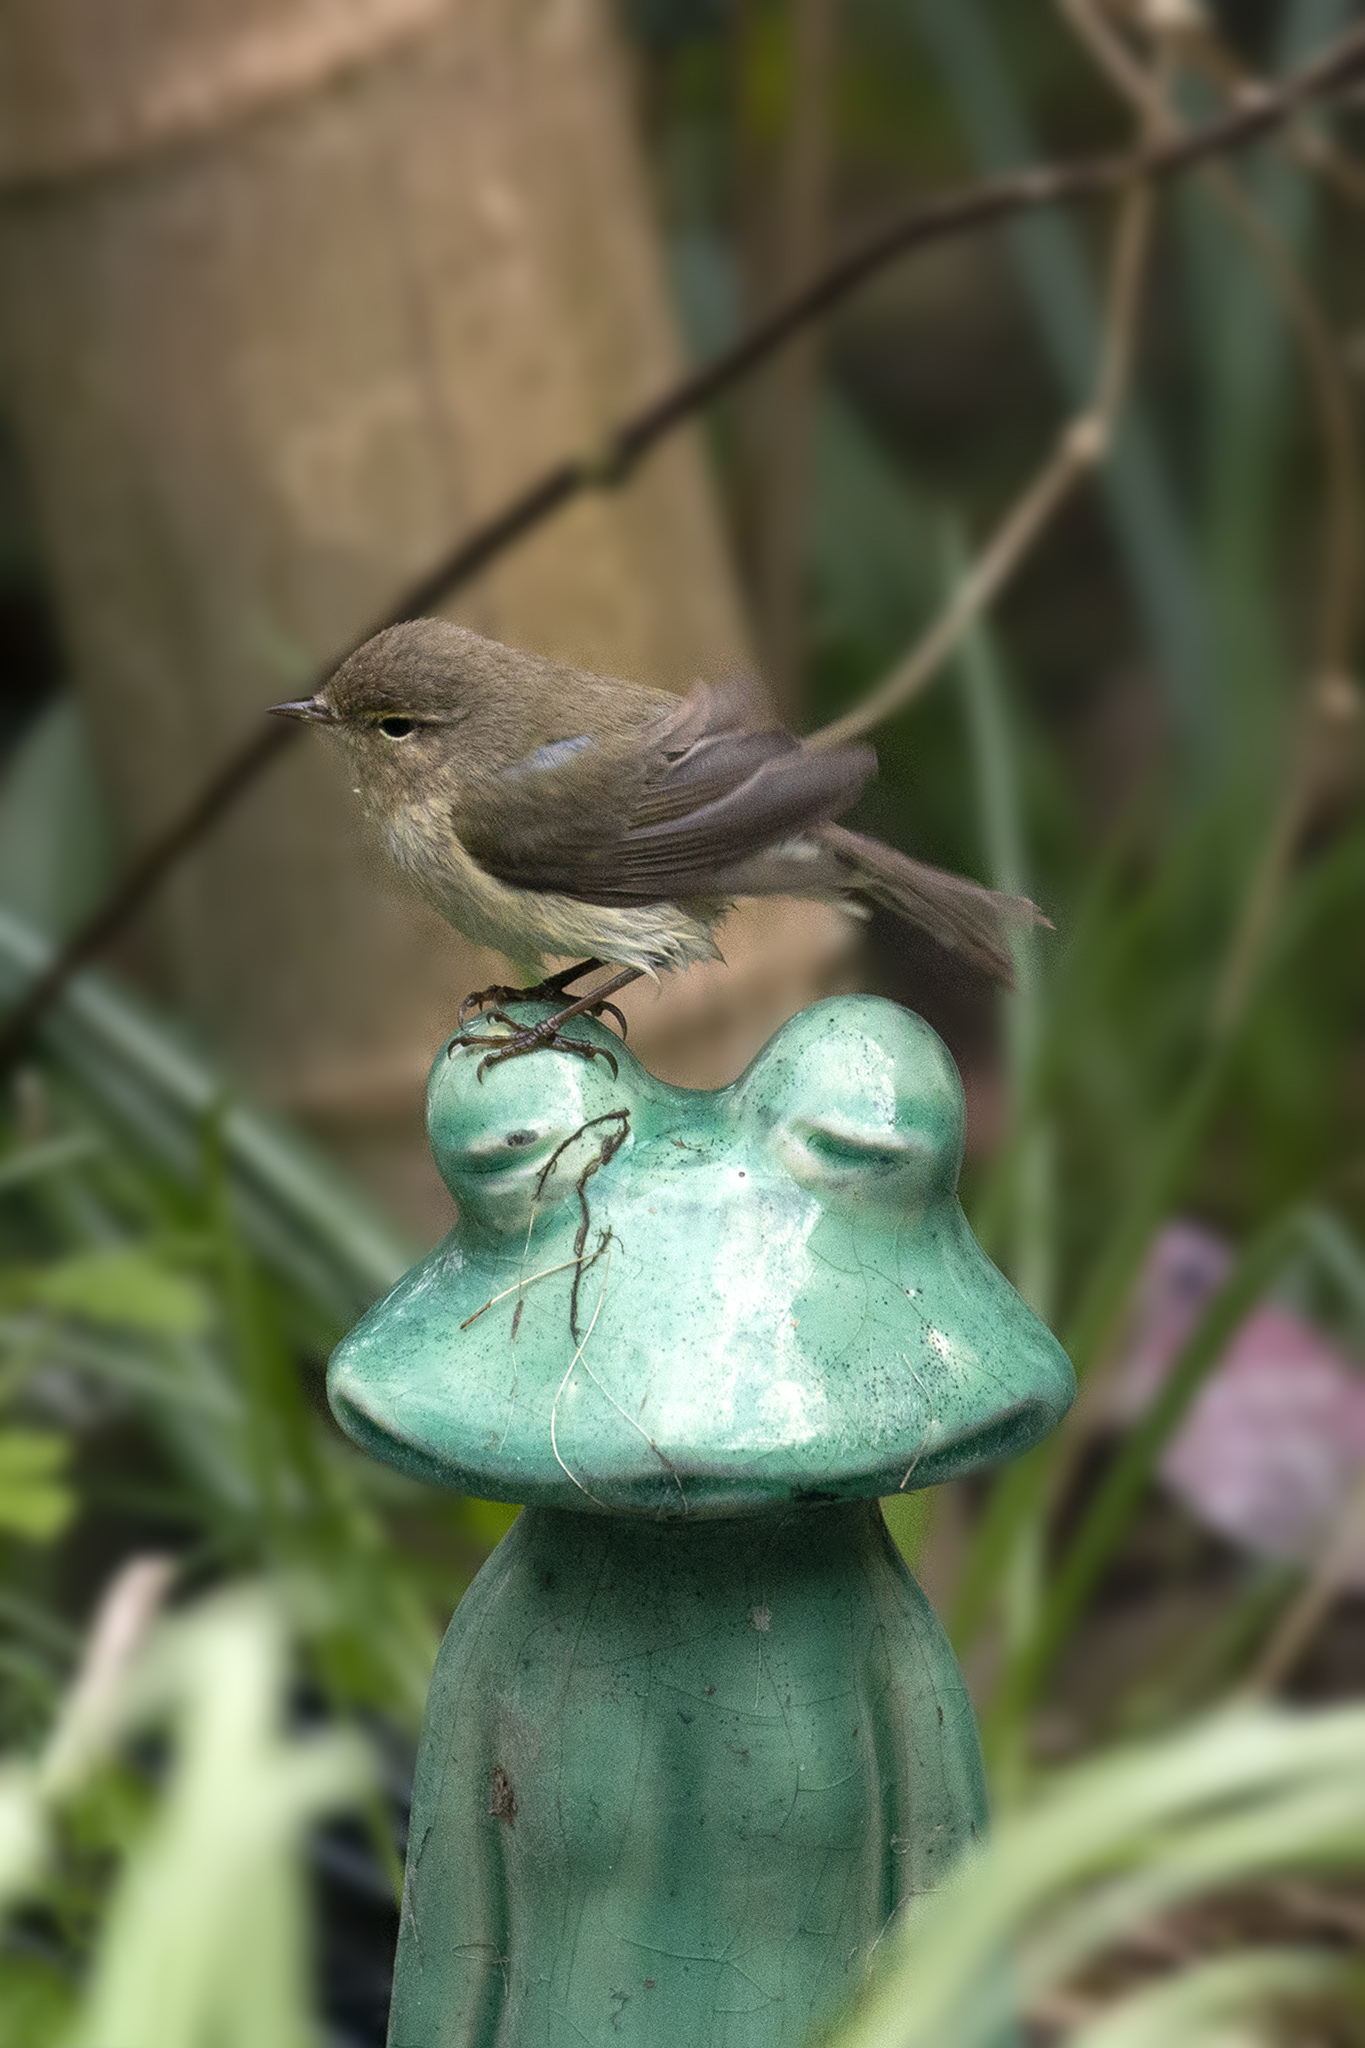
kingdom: Animalia
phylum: Chordata
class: Aves
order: Passeriformes
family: Phylloscopidae
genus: Phylloscopus
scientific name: Phylloscopus collybita
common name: Common chiffchaff
